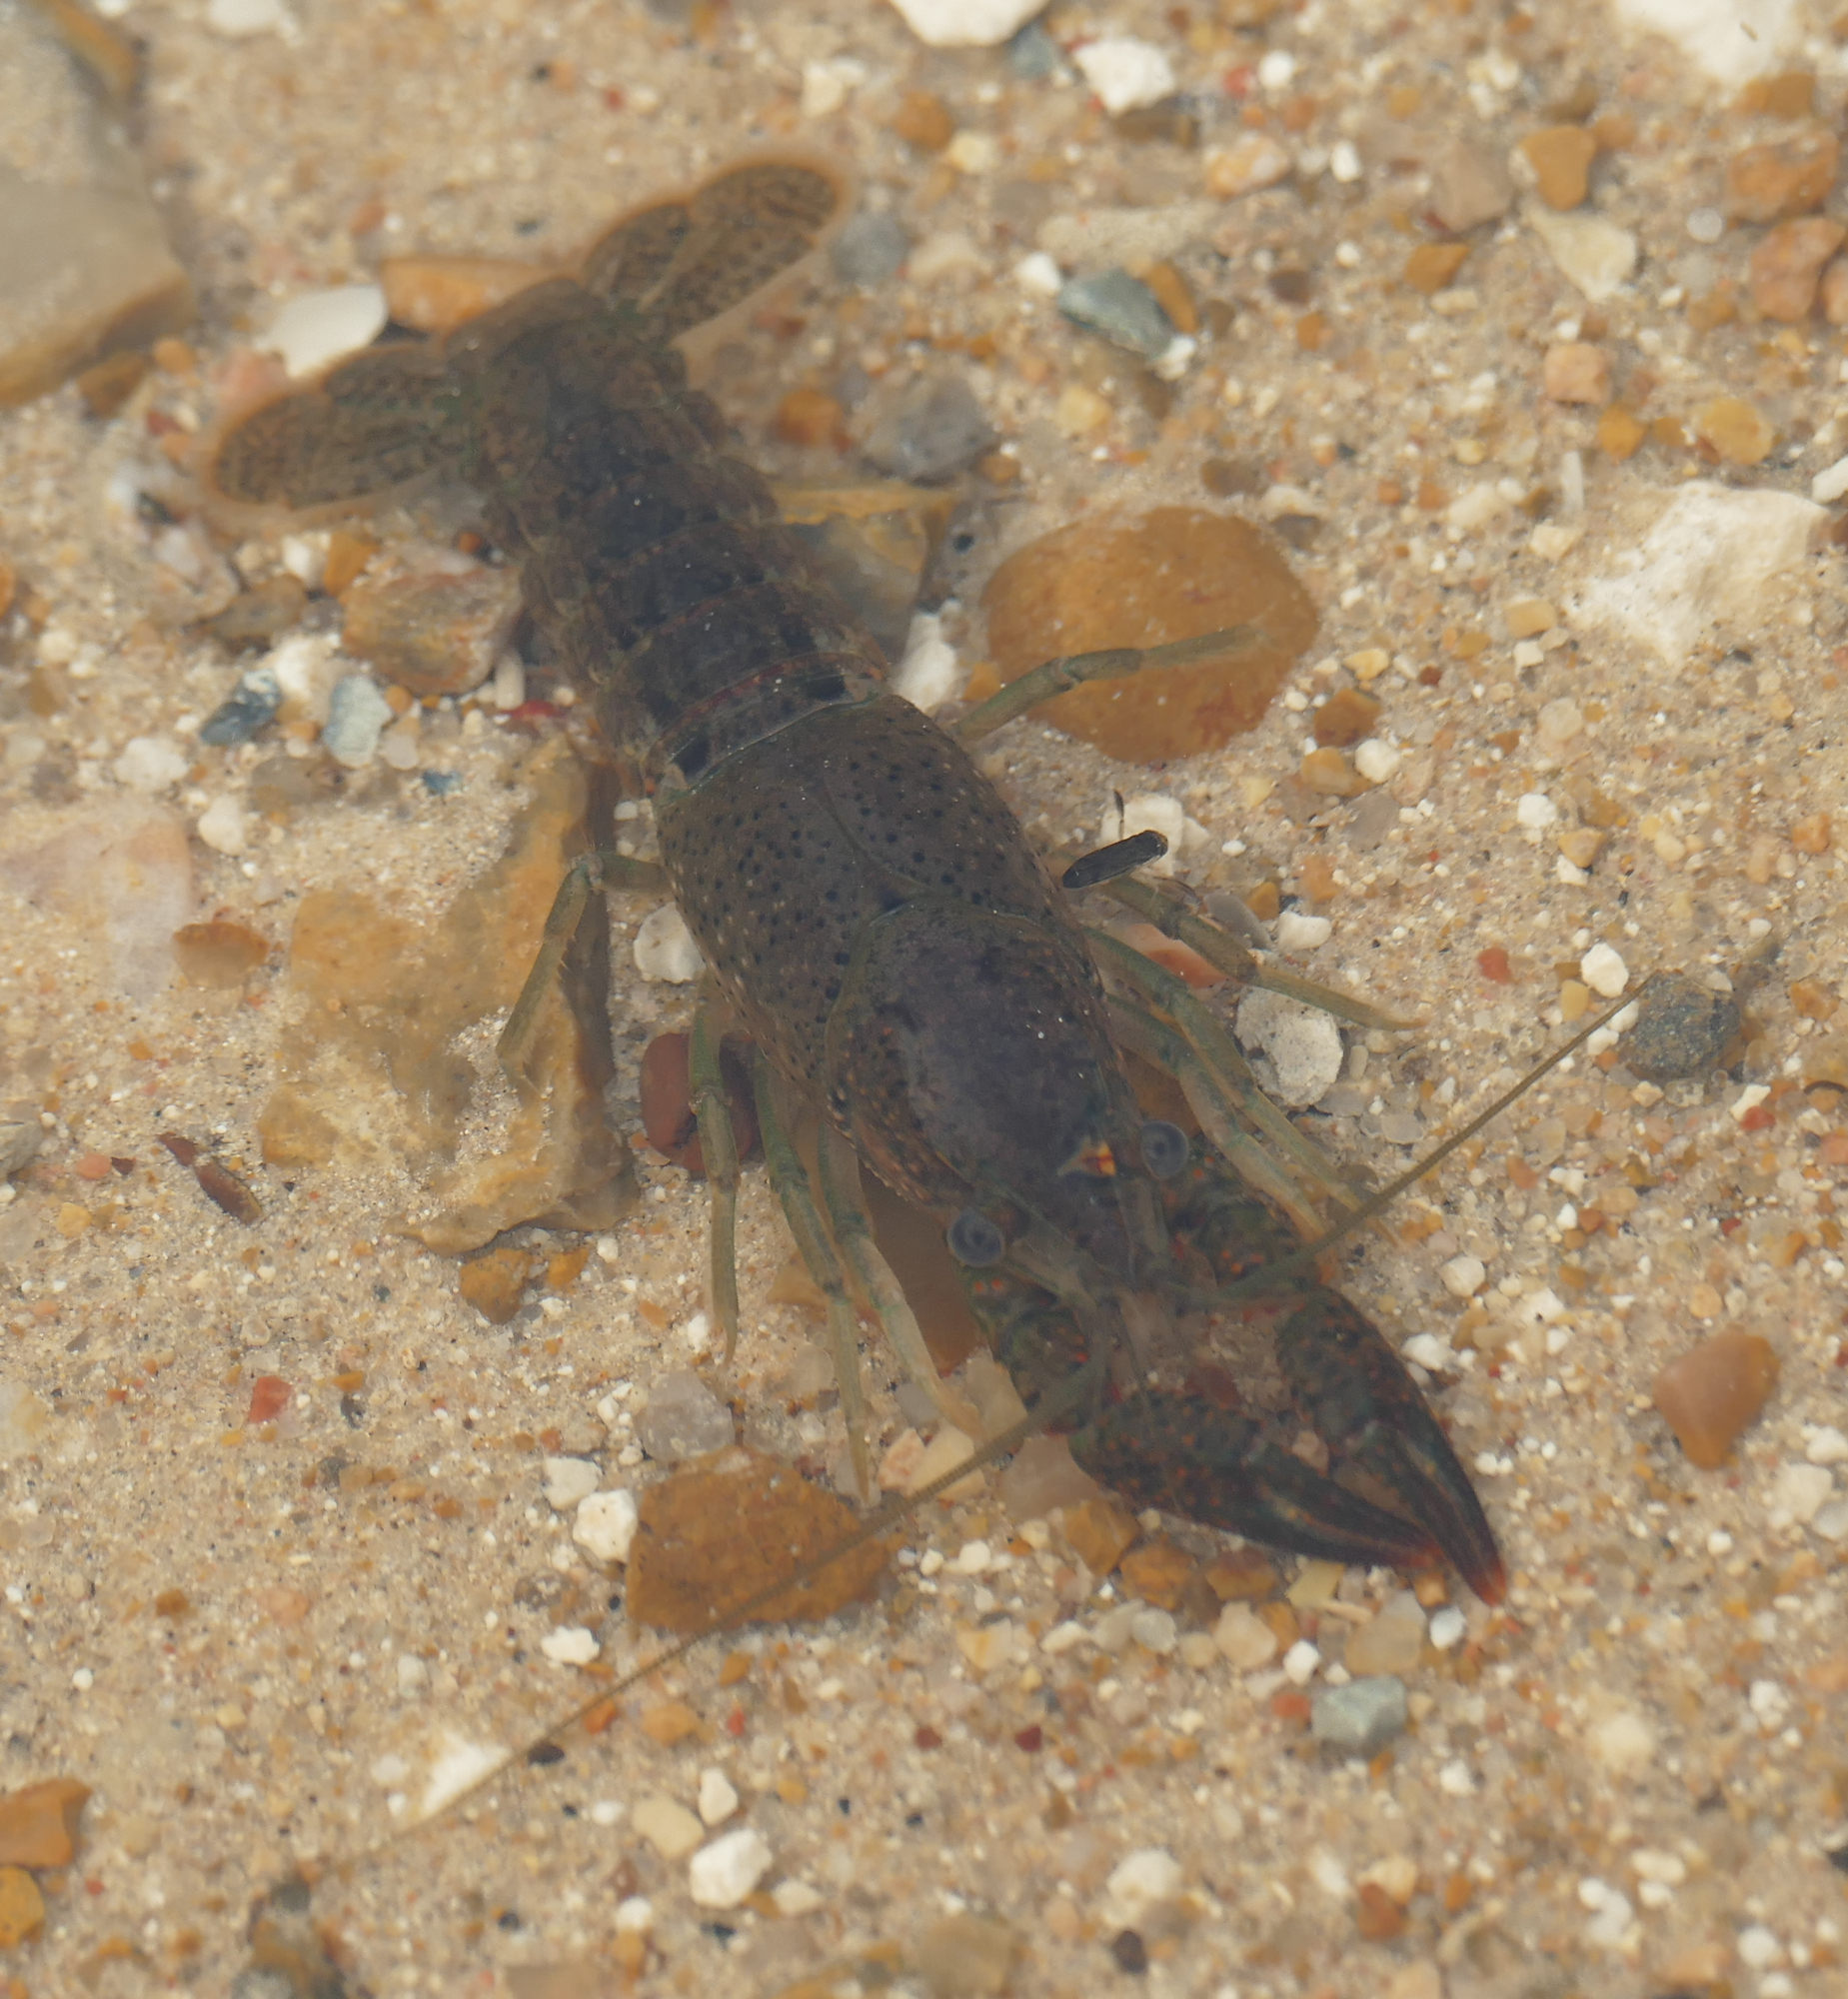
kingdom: Animalia
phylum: Arthropoda
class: Malacostraca
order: Decapoda
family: Cambaridae
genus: Procambarus
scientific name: Procambarus clarkii
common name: Red swamp crayfish
